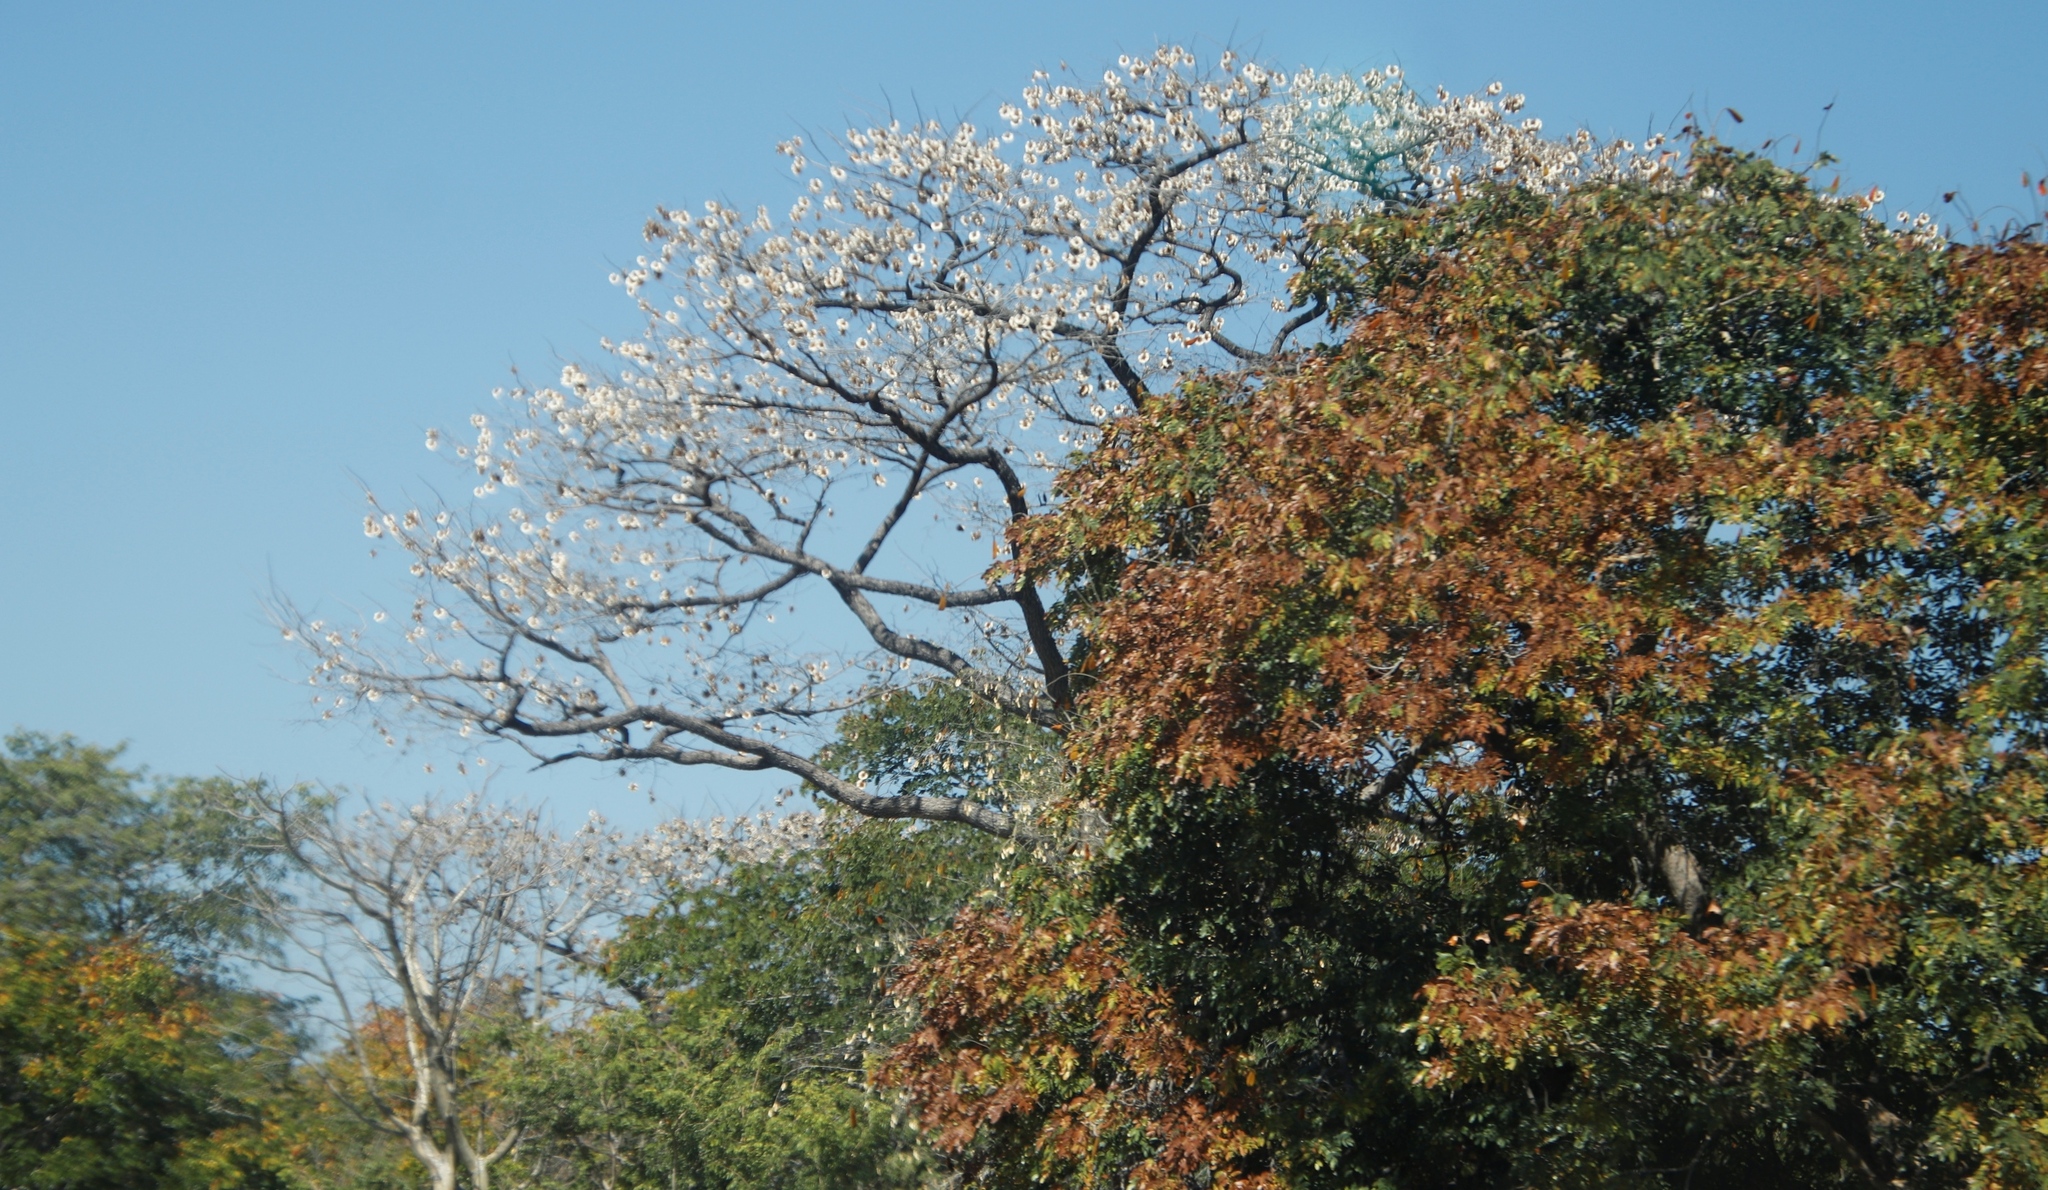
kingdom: Plantae
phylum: Tracheophyta
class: Magnoliopsida
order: Fabales
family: Fabaceae
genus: Pterocarpus
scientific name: Pterocarpus angolensis
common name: Bloodwood tree
